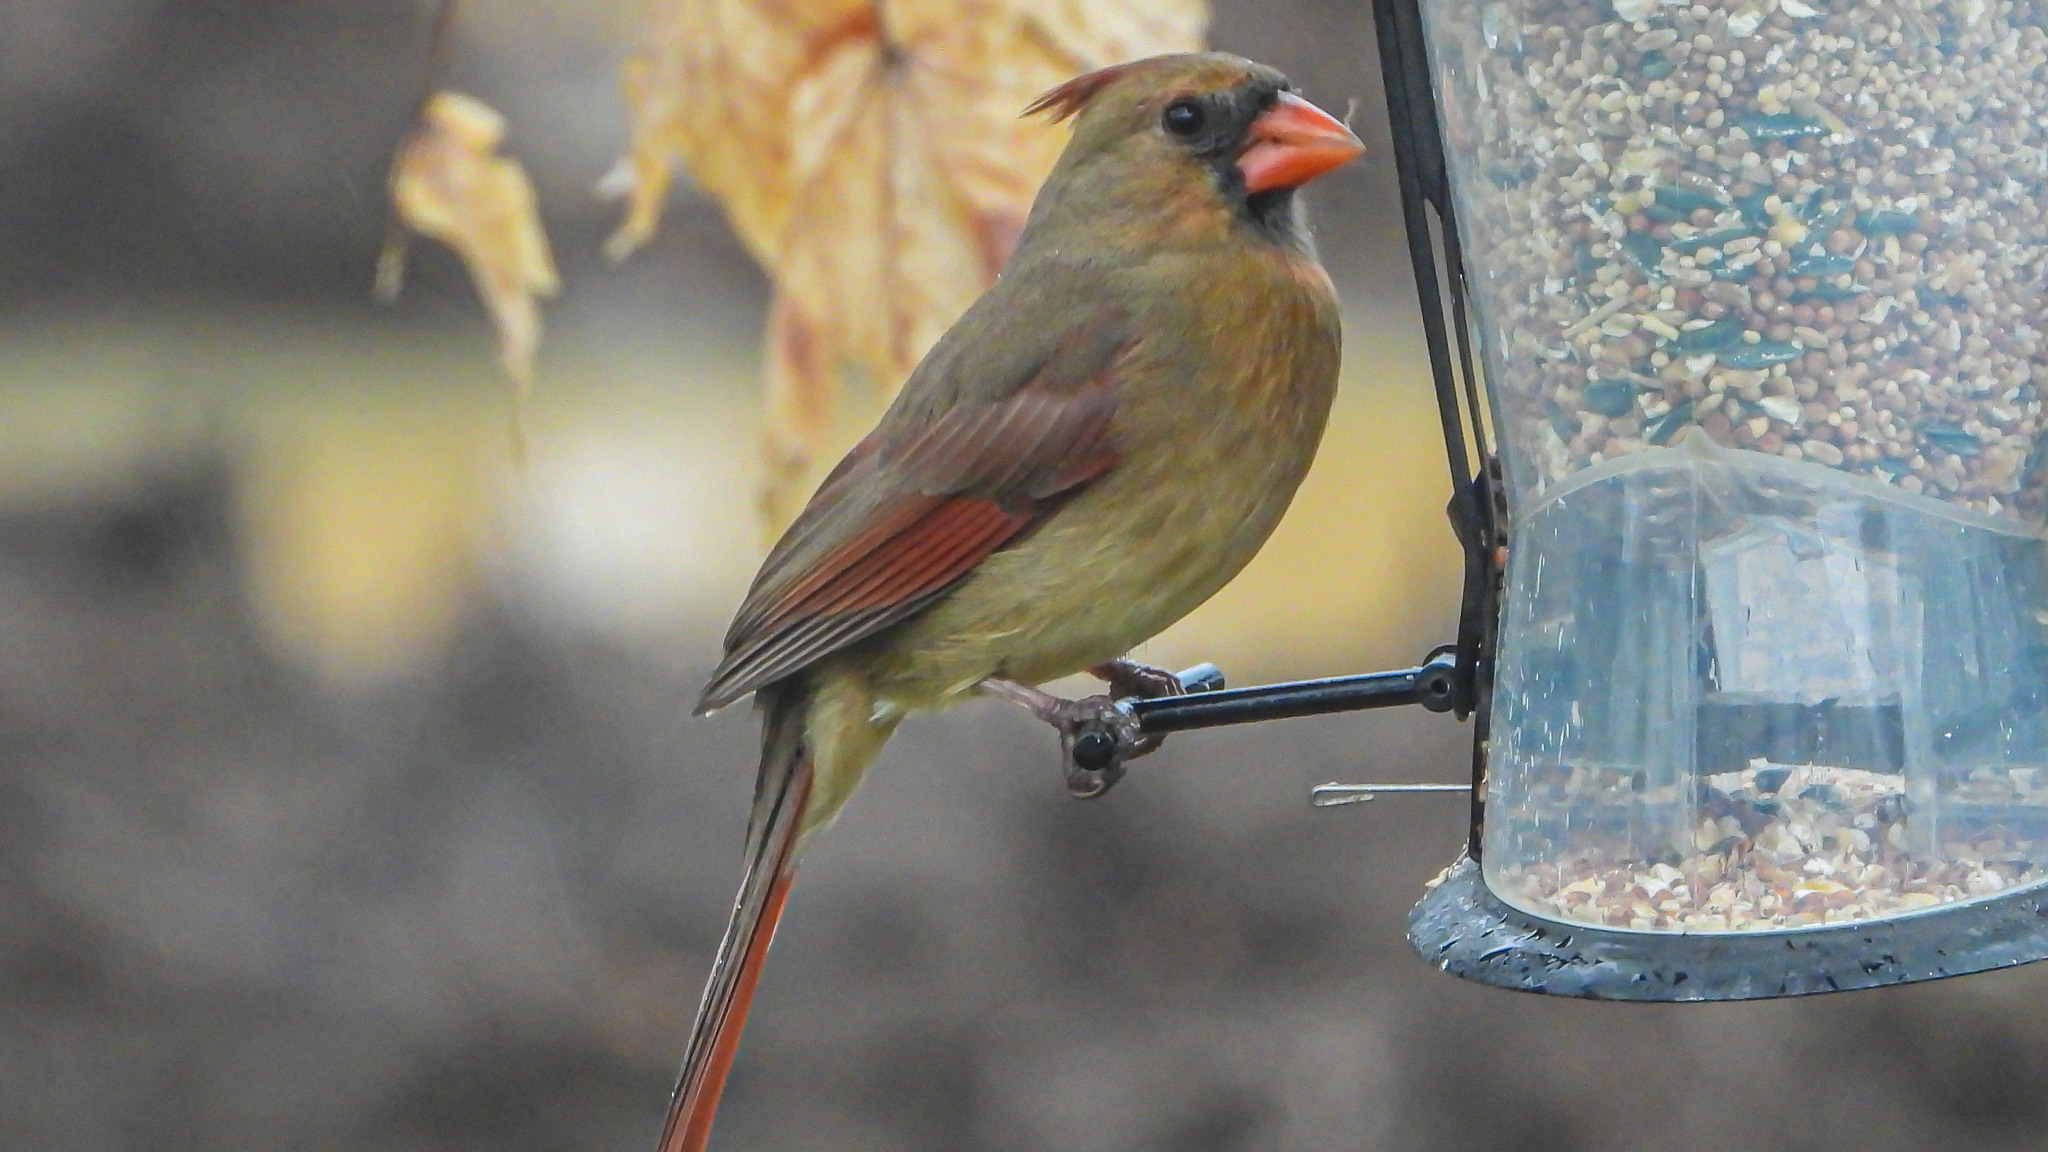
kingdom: Animalia
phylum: Chordata
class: Aves
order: Passeriformes
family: Cardinalidae
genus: Cardinalis
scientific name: Cardinalis cardinalis
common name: Northern cardinal
